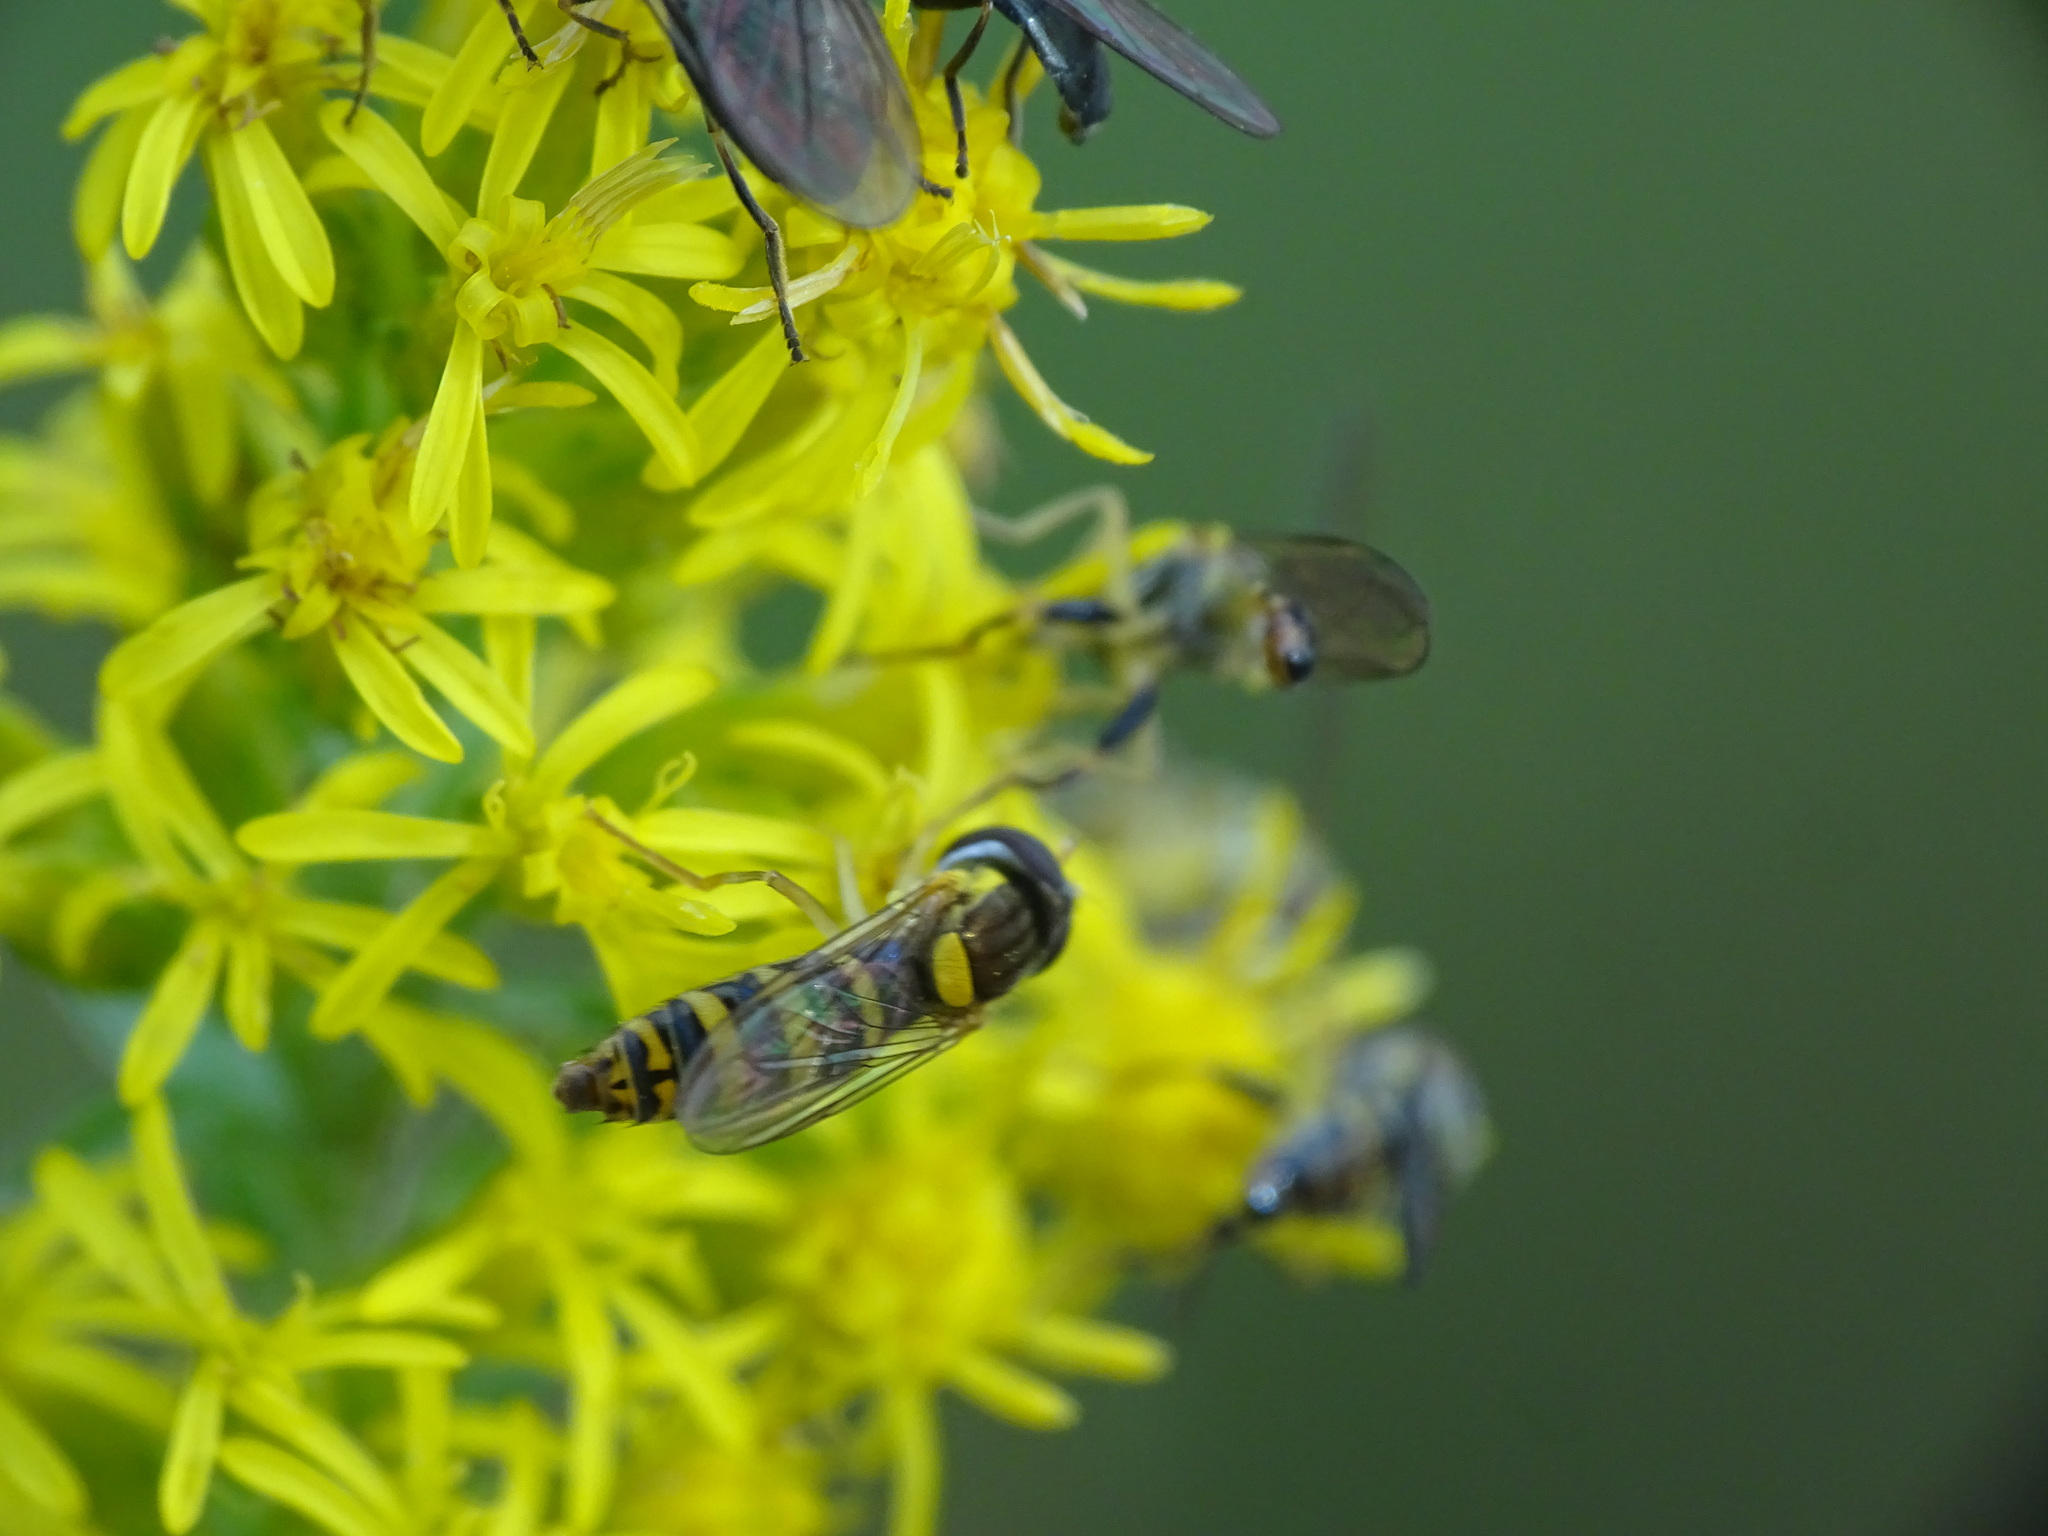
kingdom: Animalia
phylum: Arthropoda
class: Insecta
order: Diptera
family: Syrphidae
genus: Sphaerophoria
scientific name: Sphaerophoria
